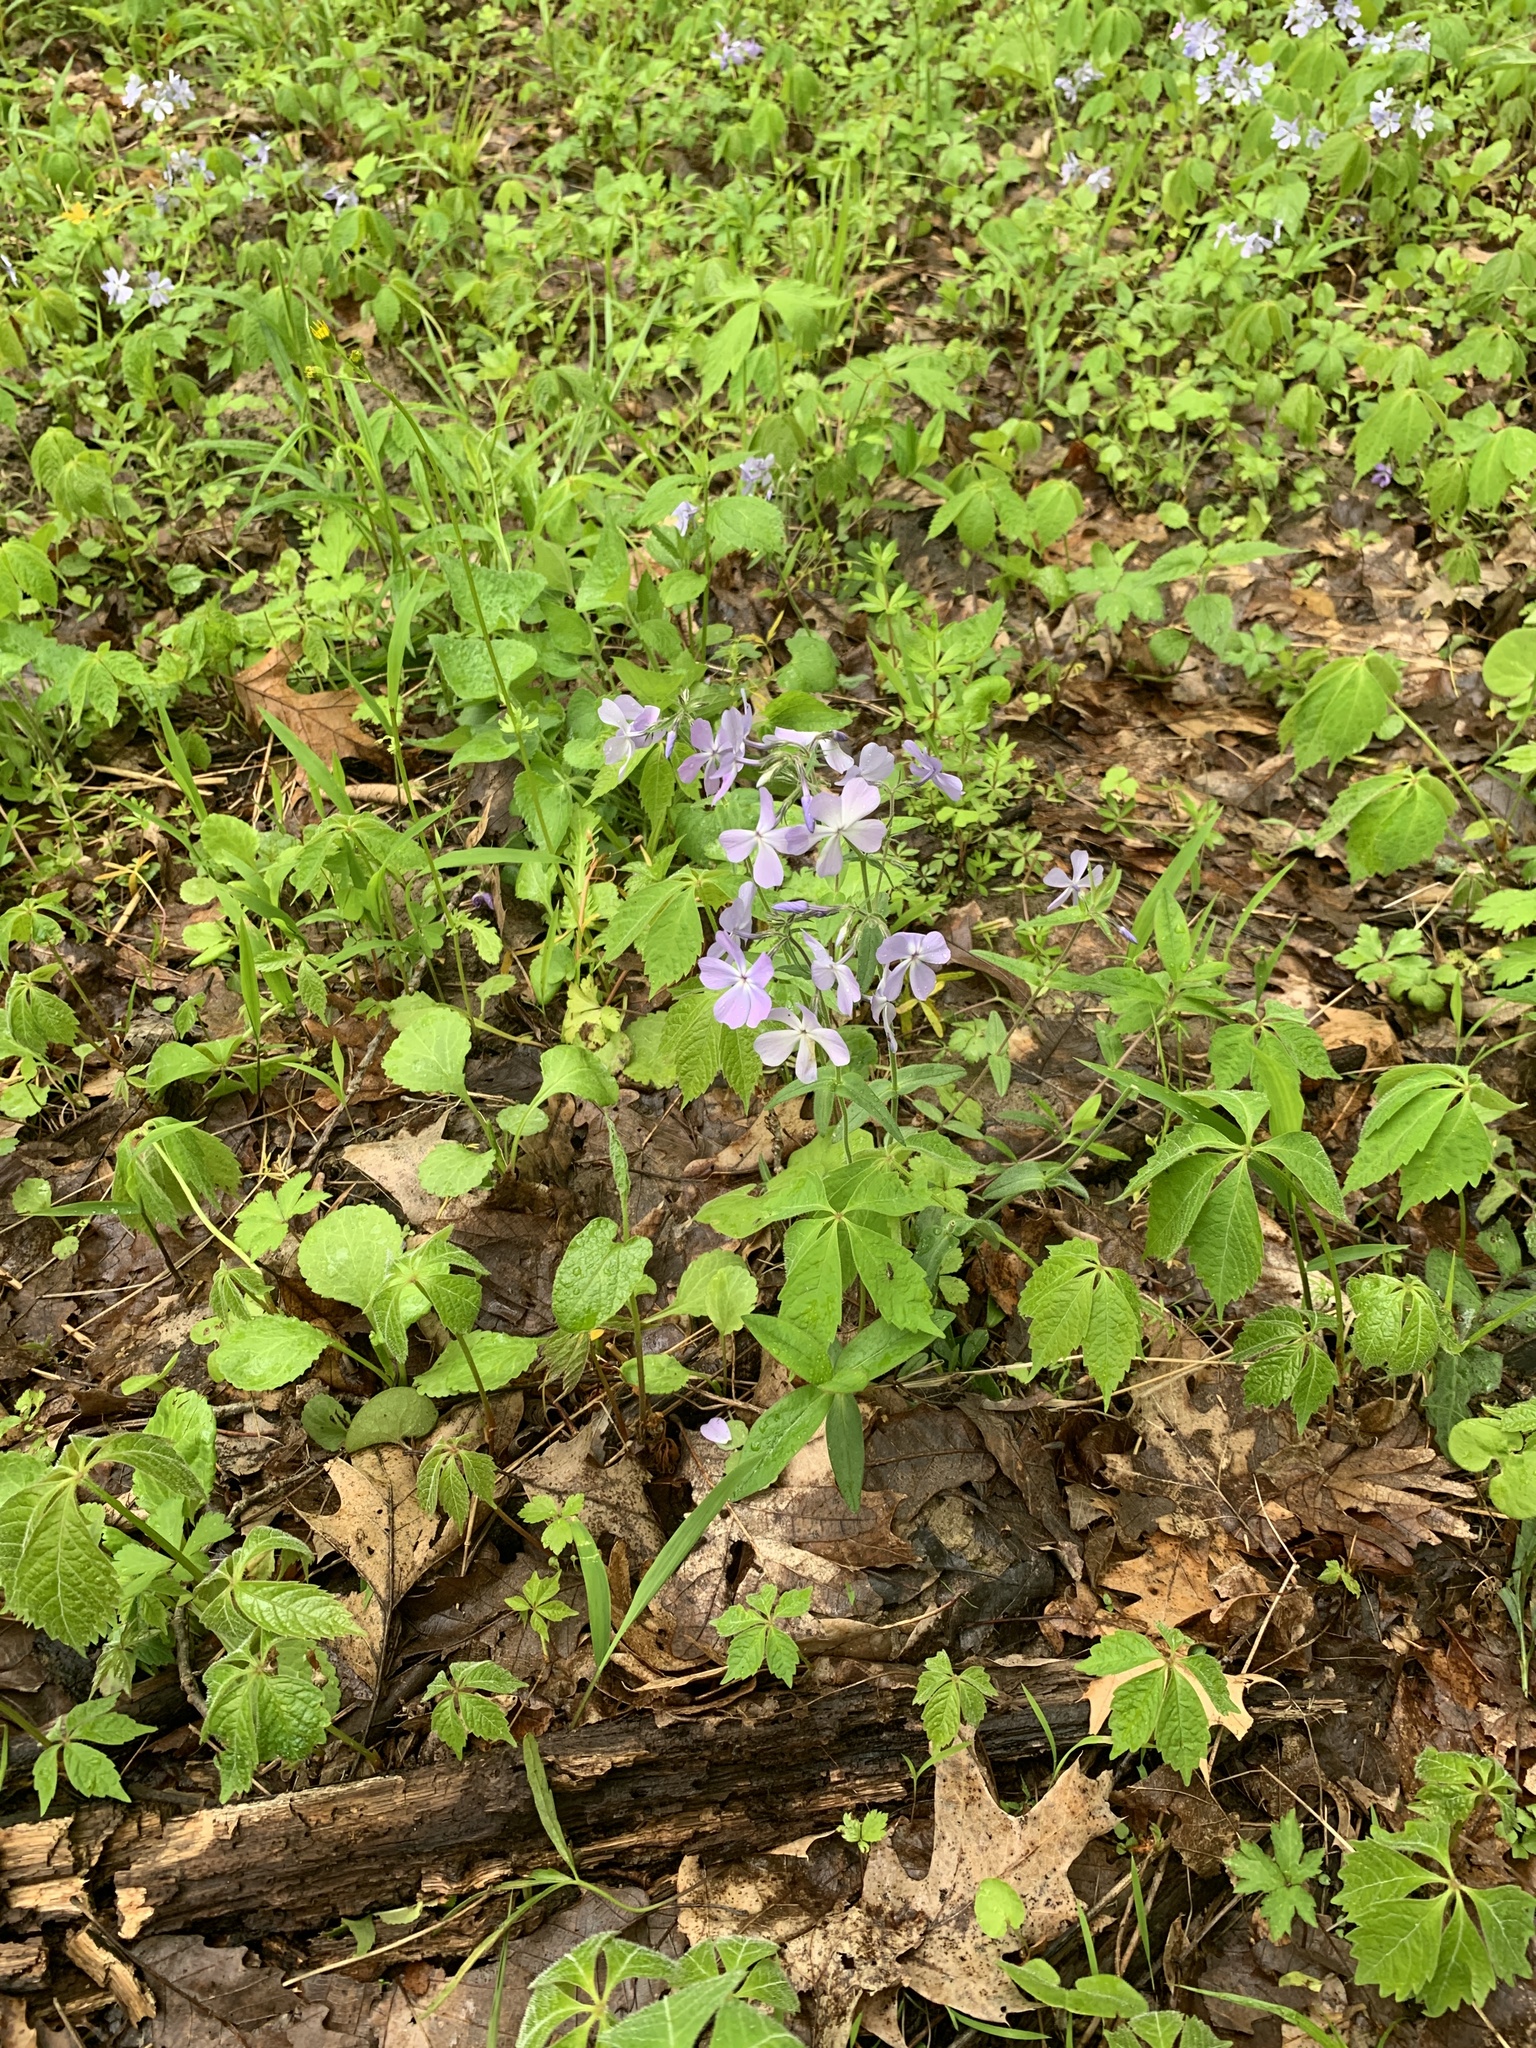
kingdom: Plantae
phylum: Tracheophyta
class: Magnoliopsida
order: Ericales
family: Polemoniaceae
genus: Phlox
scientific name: Phlox divaricata
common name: Blue phlox
